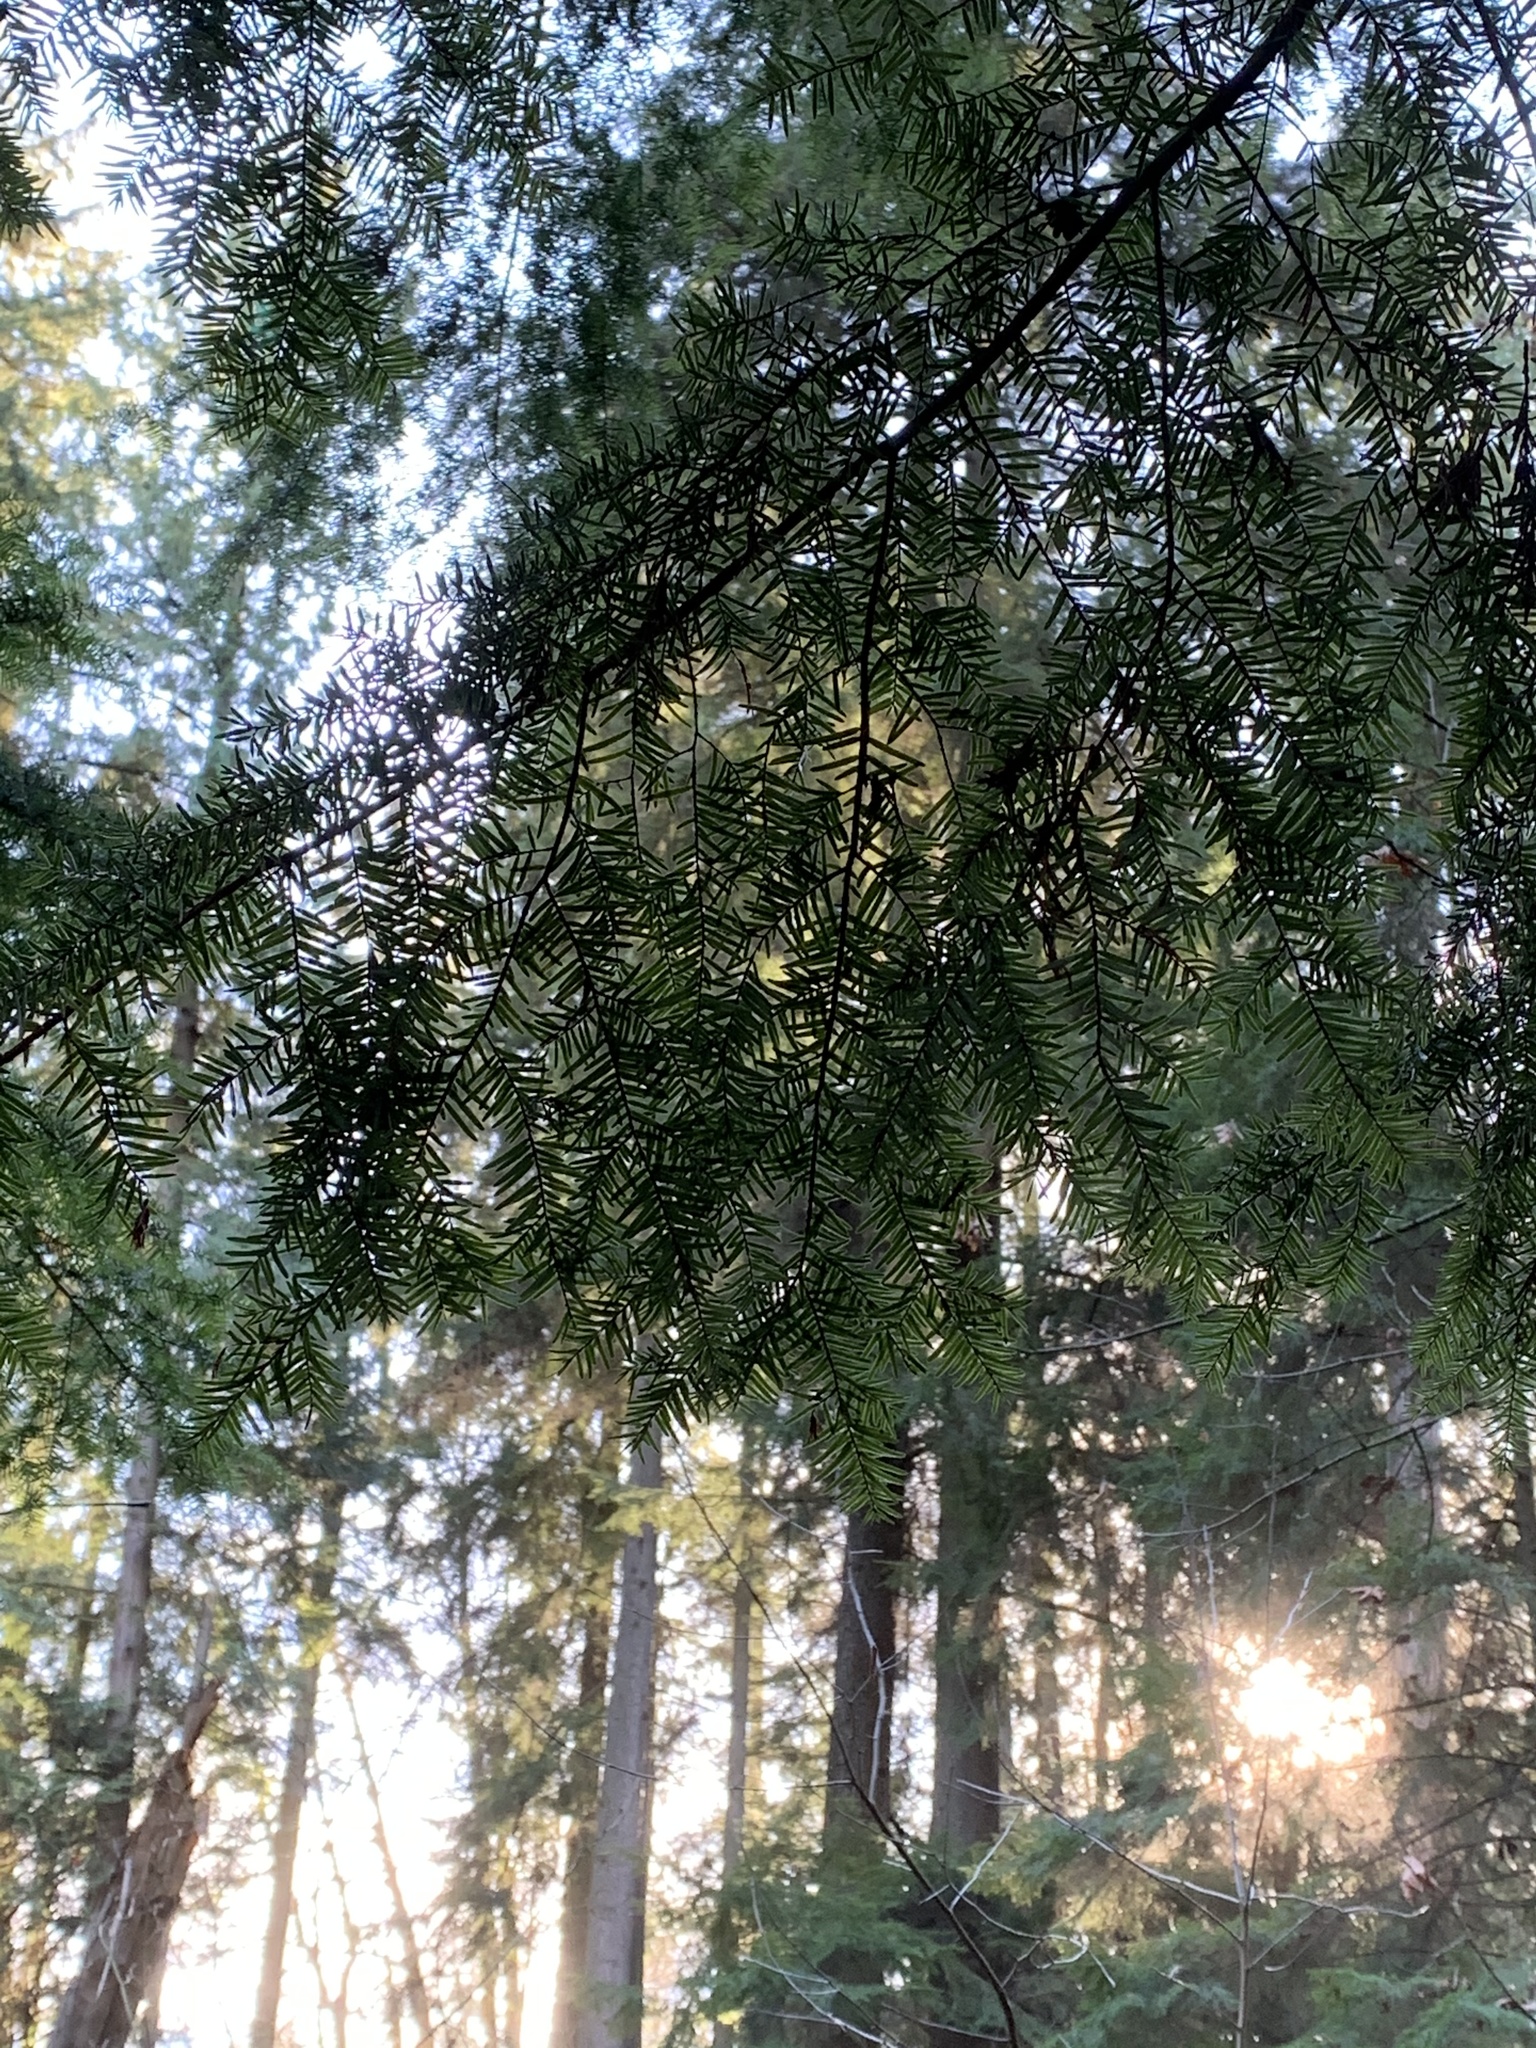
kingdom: Plantae
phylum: Tracheophyta
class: Pinopsida
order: Pinales
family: Pinaceae
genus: Tsuga
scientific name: Tsuga heterophylla
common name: Western hemlock
